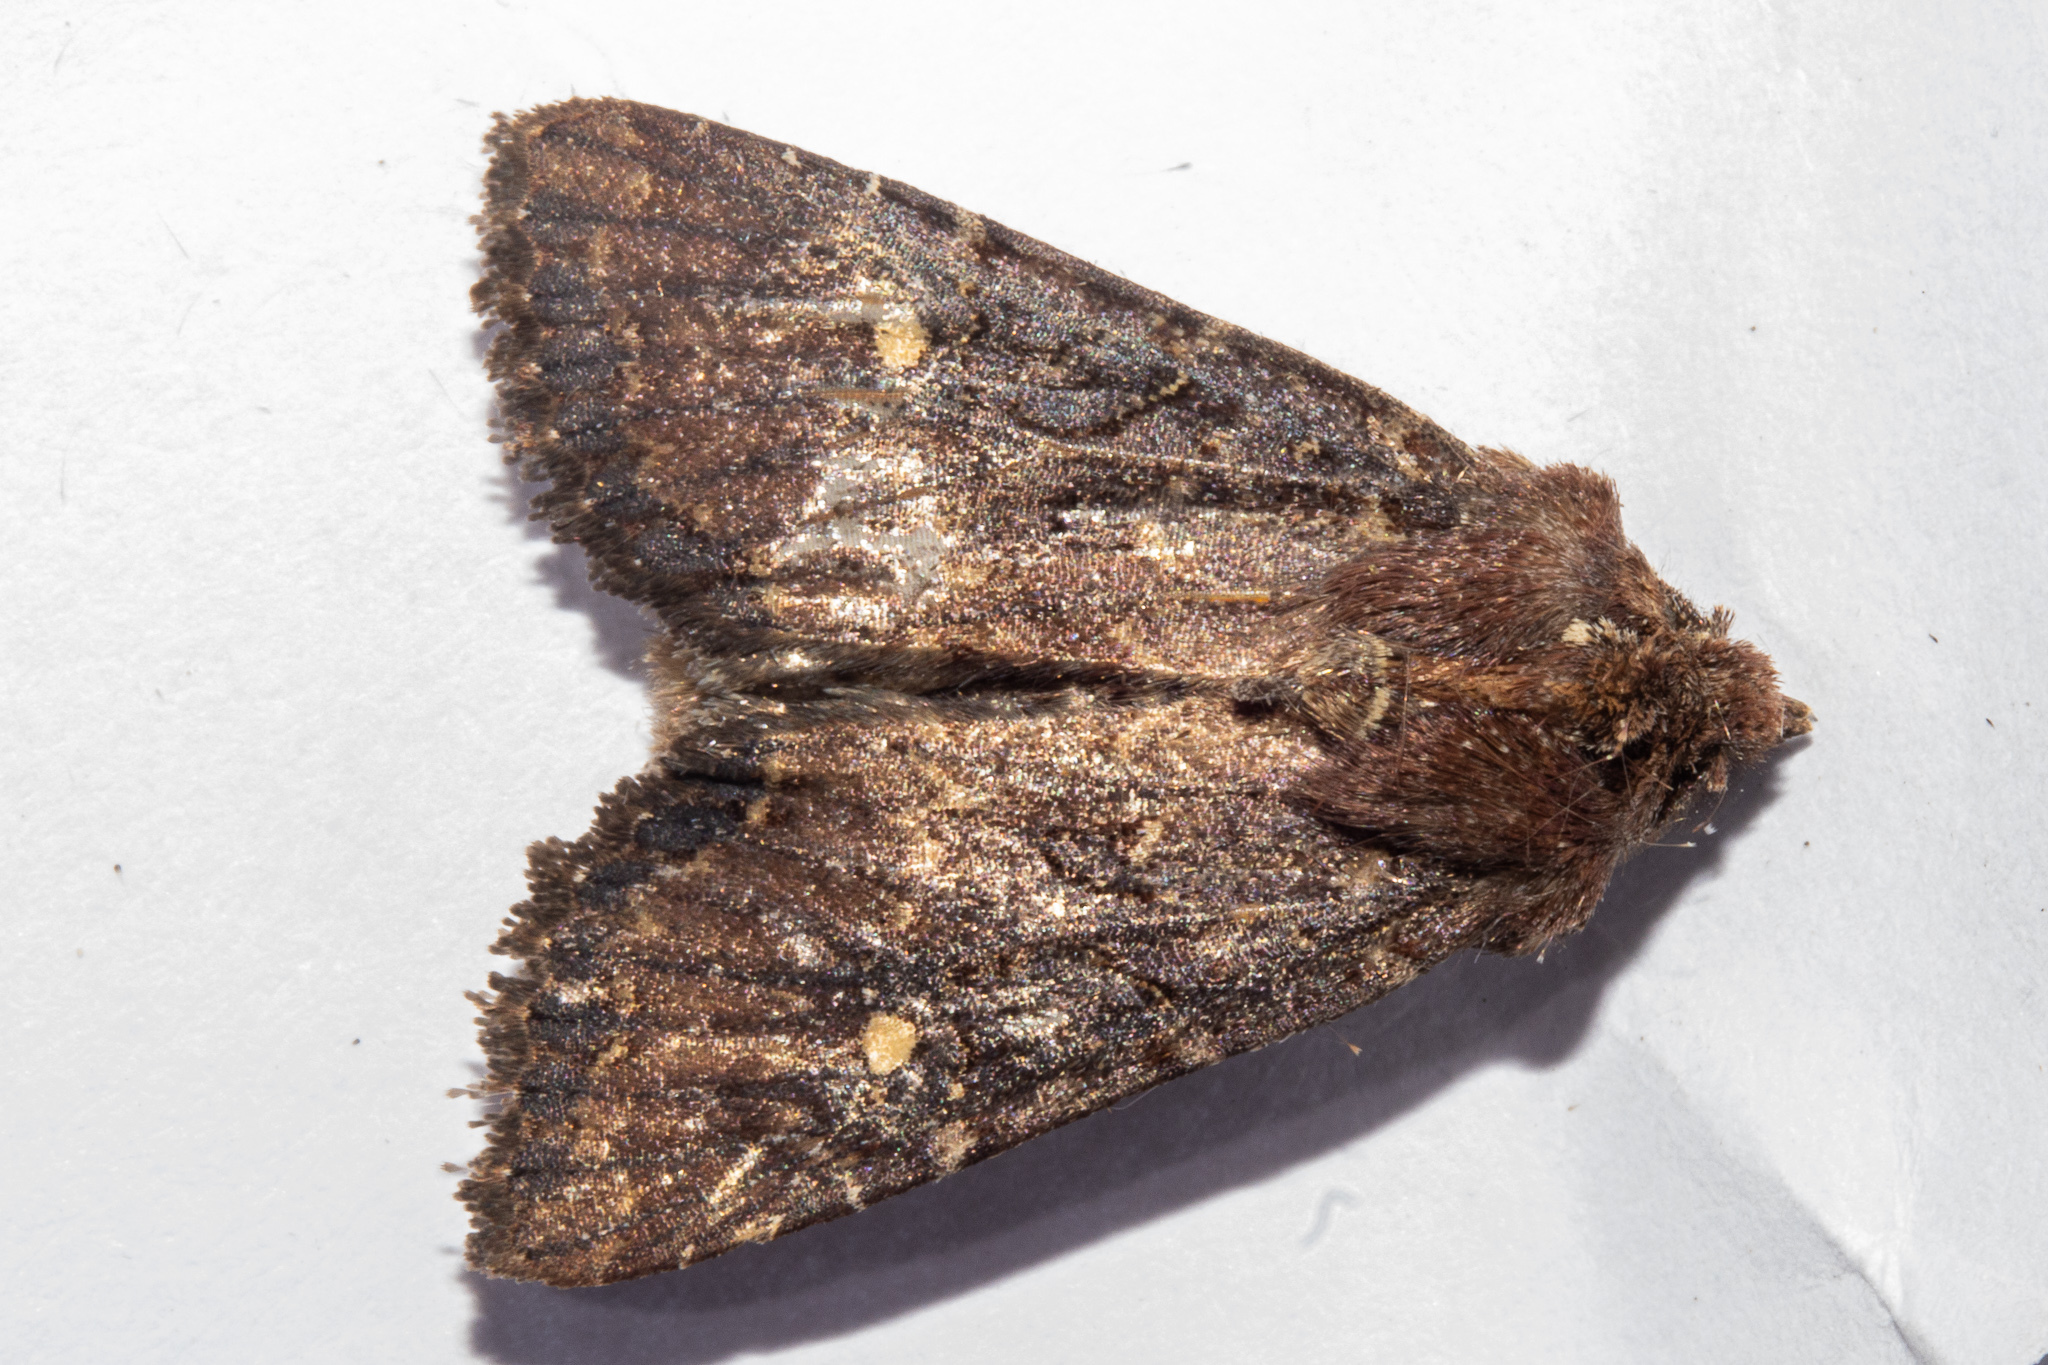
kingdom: Animalia
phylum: Arthropoda
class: Insecta
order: Lepidoptera
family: Noctuidae
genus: Meterana
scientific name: Meterana vitiosa
